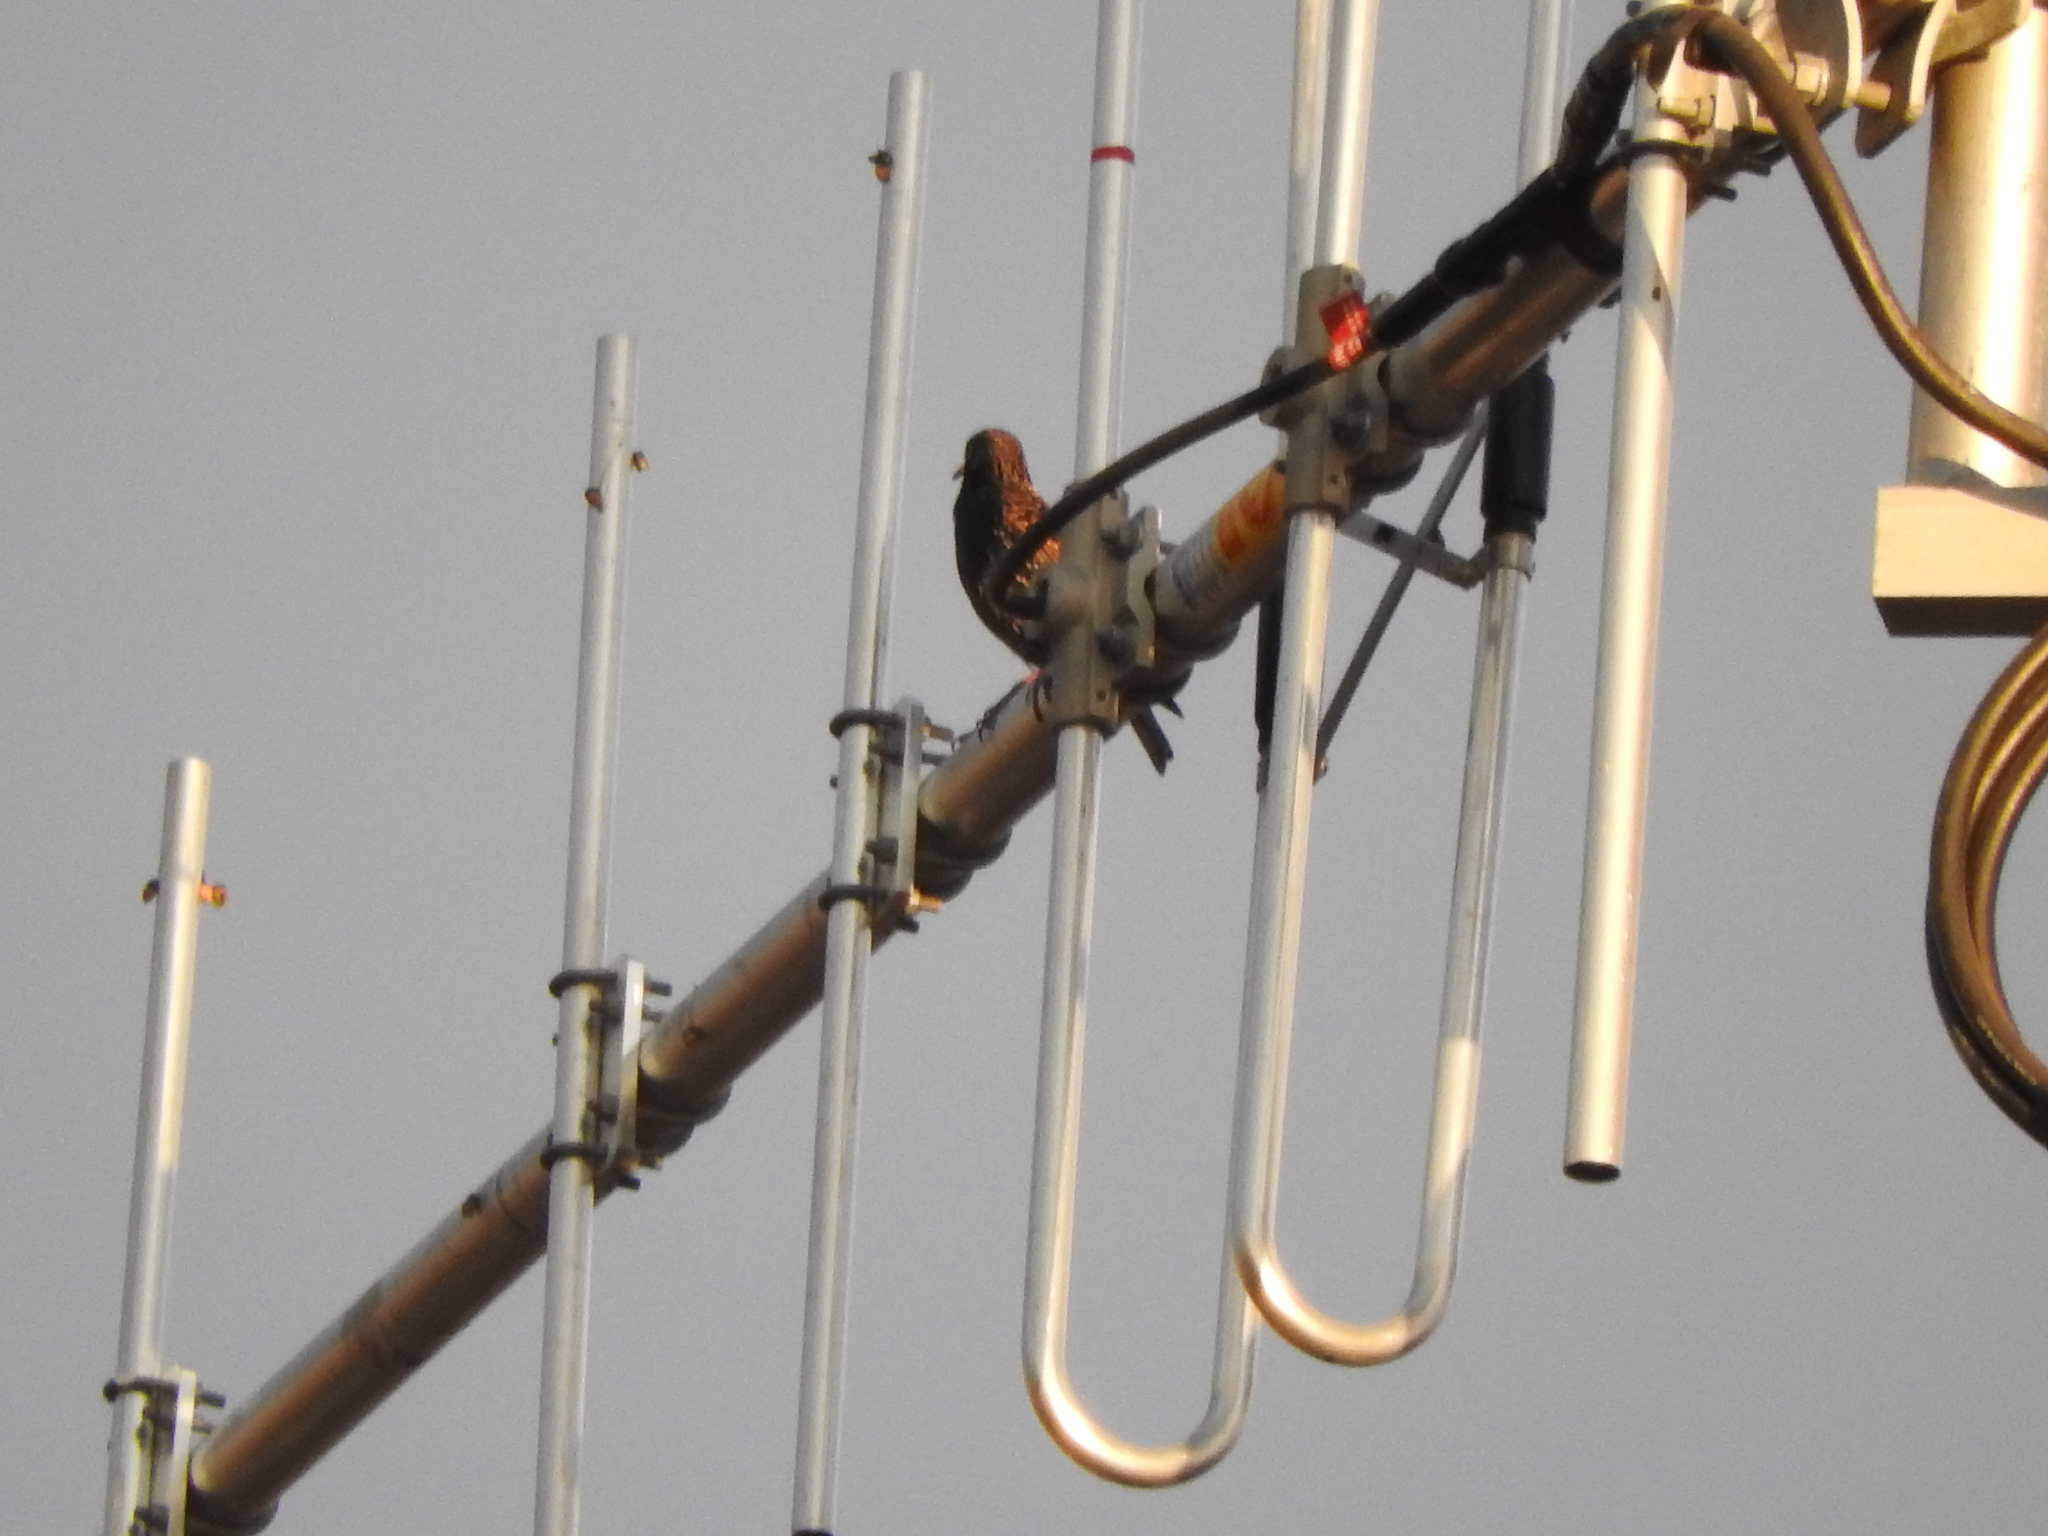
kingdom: Animalia
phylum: Chordata
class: Aves
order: Passeriformes
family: Sturnidae
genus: Sturnus
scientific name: Sturnus vulgaris
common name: Common starling
